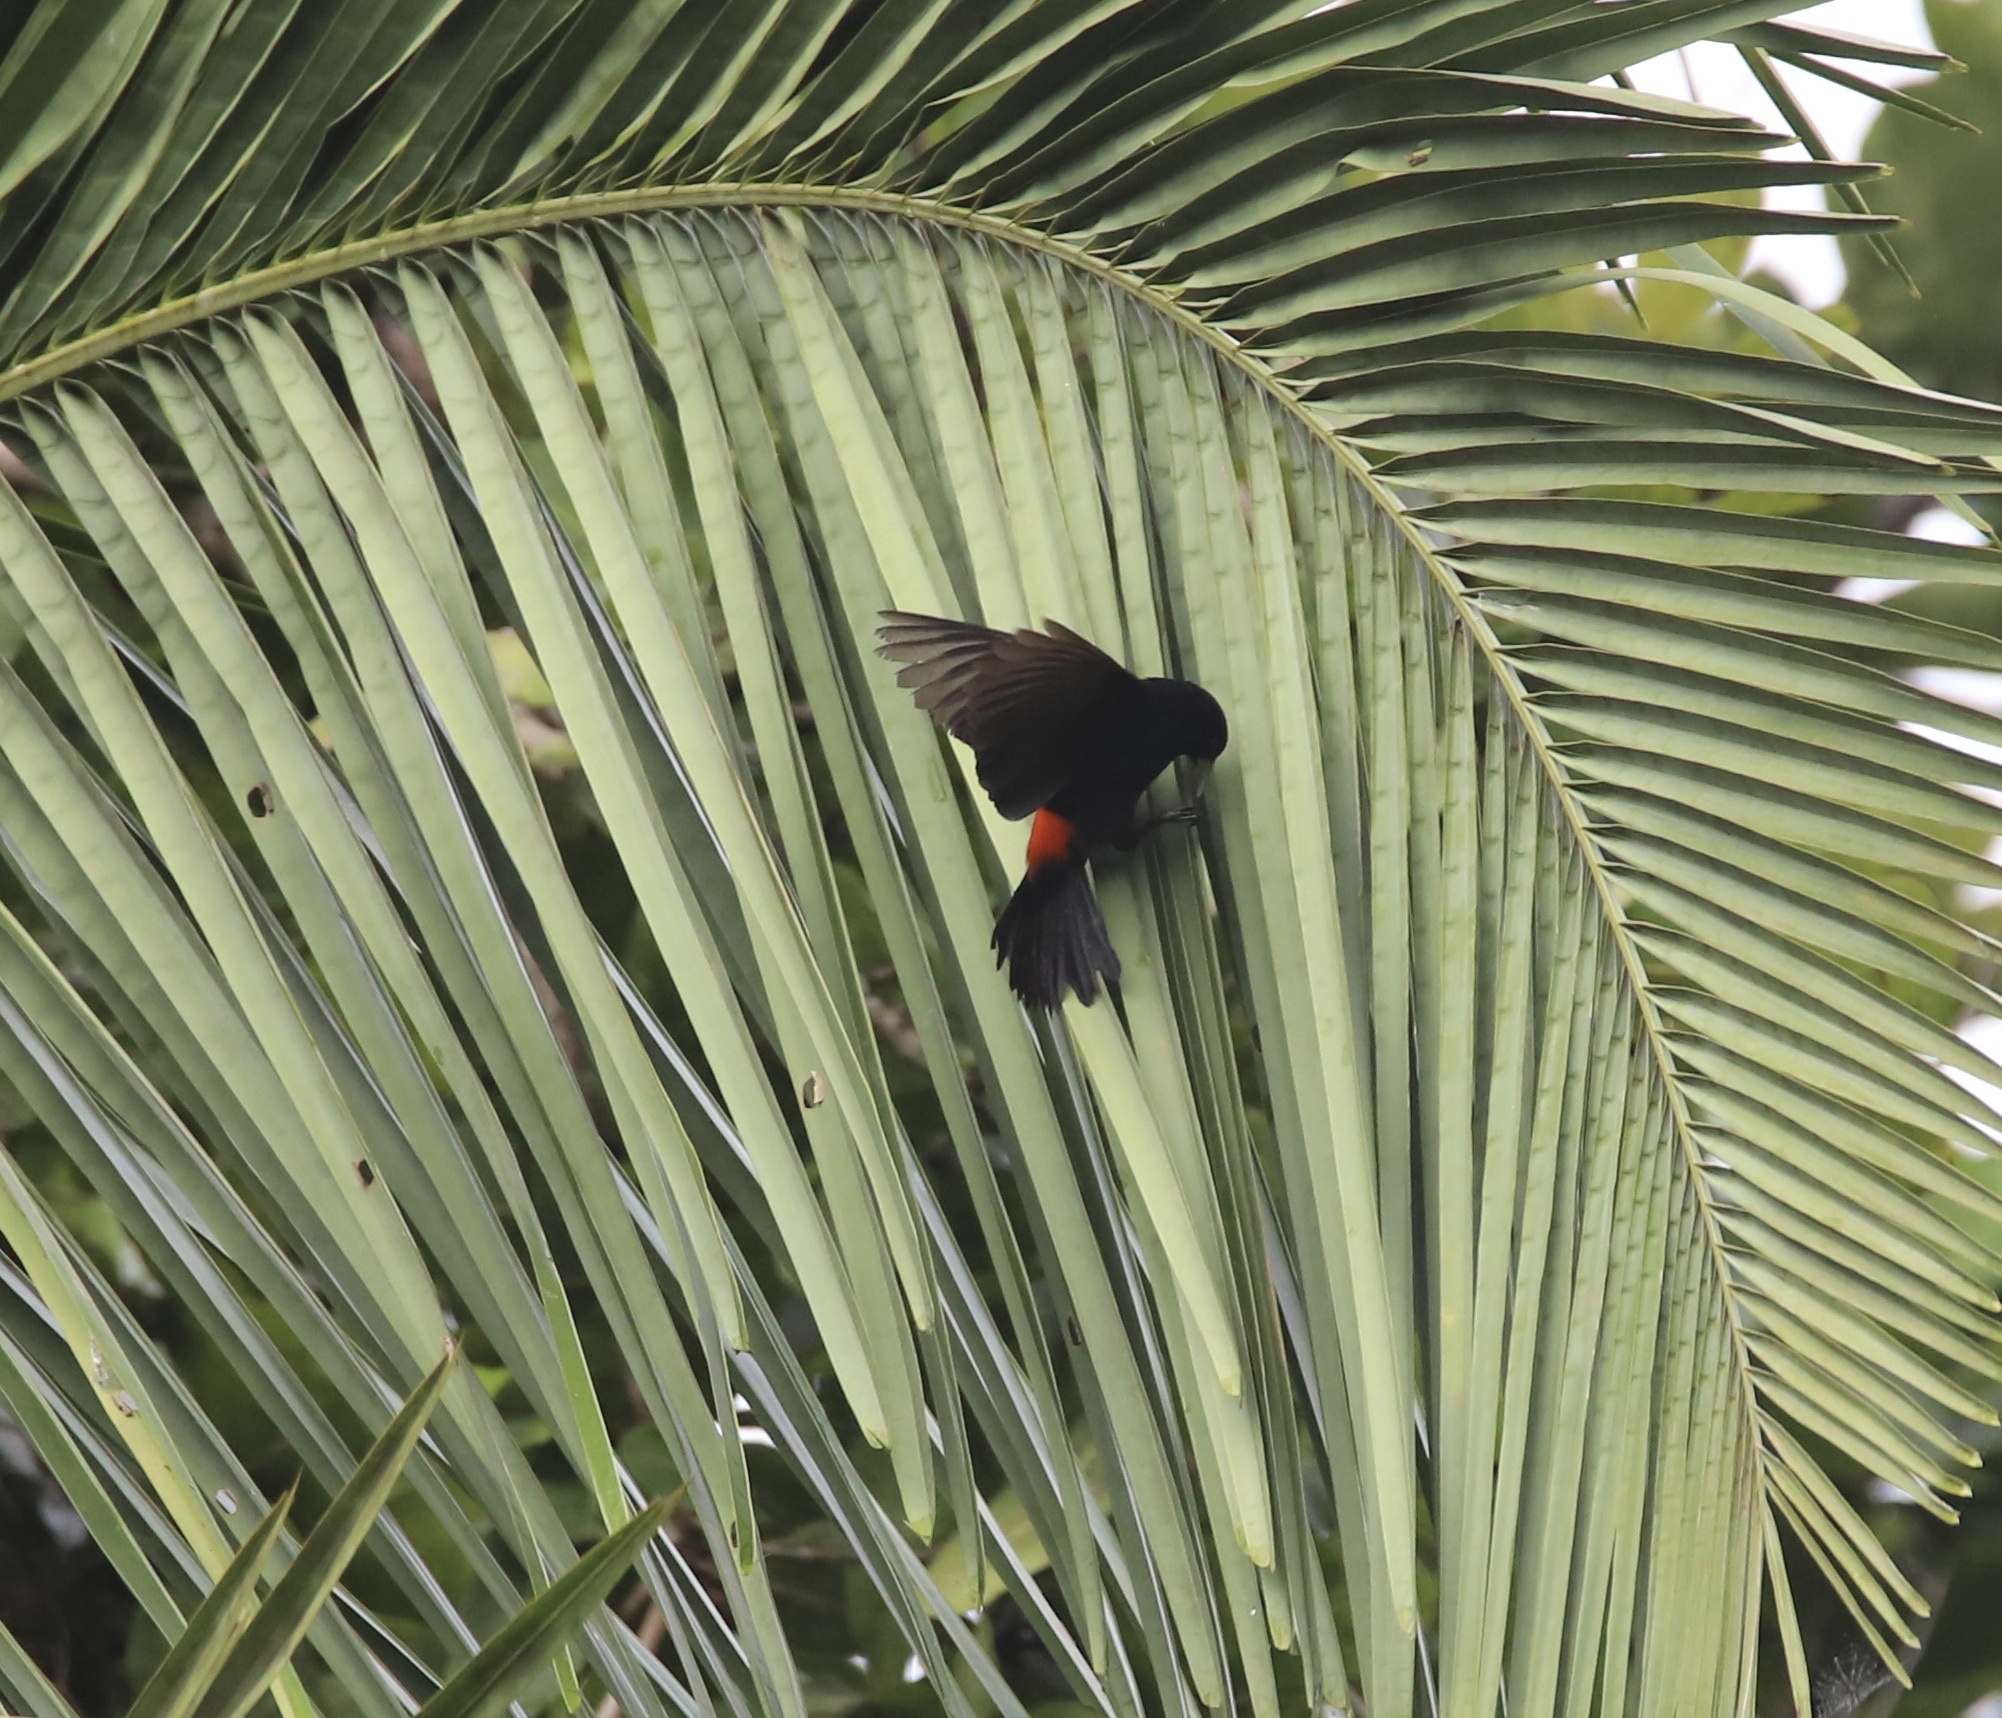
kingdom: Animalia
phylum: Chordata
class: Aves
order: Passeriformes
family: Icteridae
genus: Cacicus
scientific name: Cacicus uropygialis
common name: Scarlet-rumped cacique
